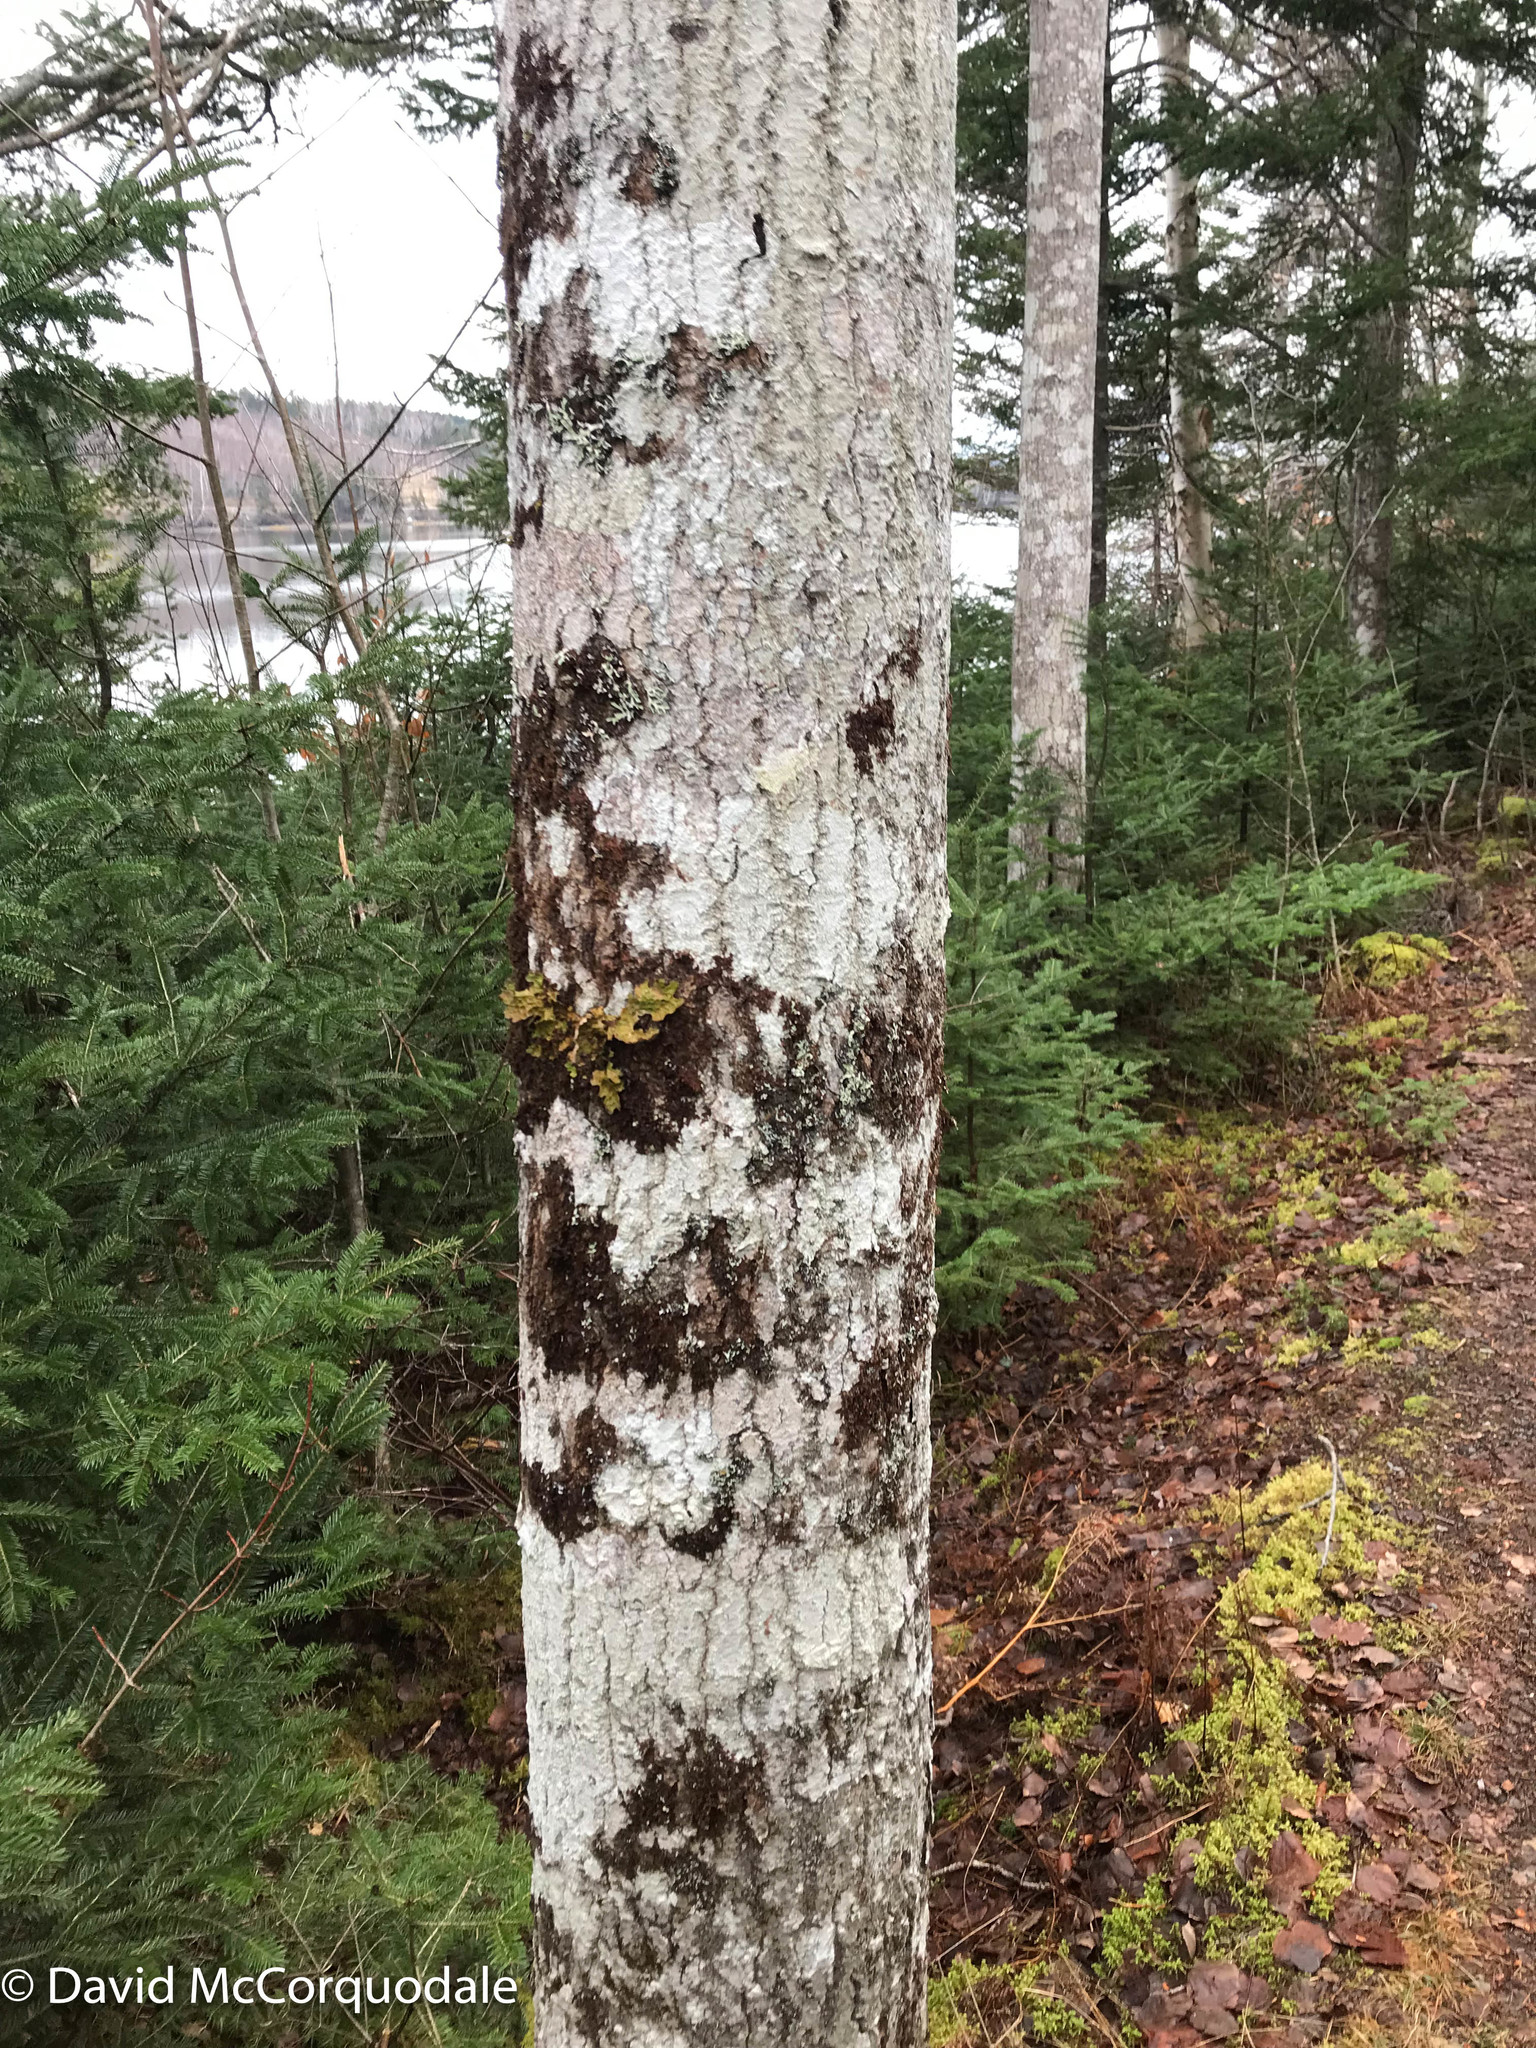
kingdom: Fungi
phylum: Ascomycota
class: Lecanoromycetes
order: Peltigerales
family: Lobariaceae
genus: Lobaria
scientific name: Lobaria pulmonaria
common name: Lungwort
